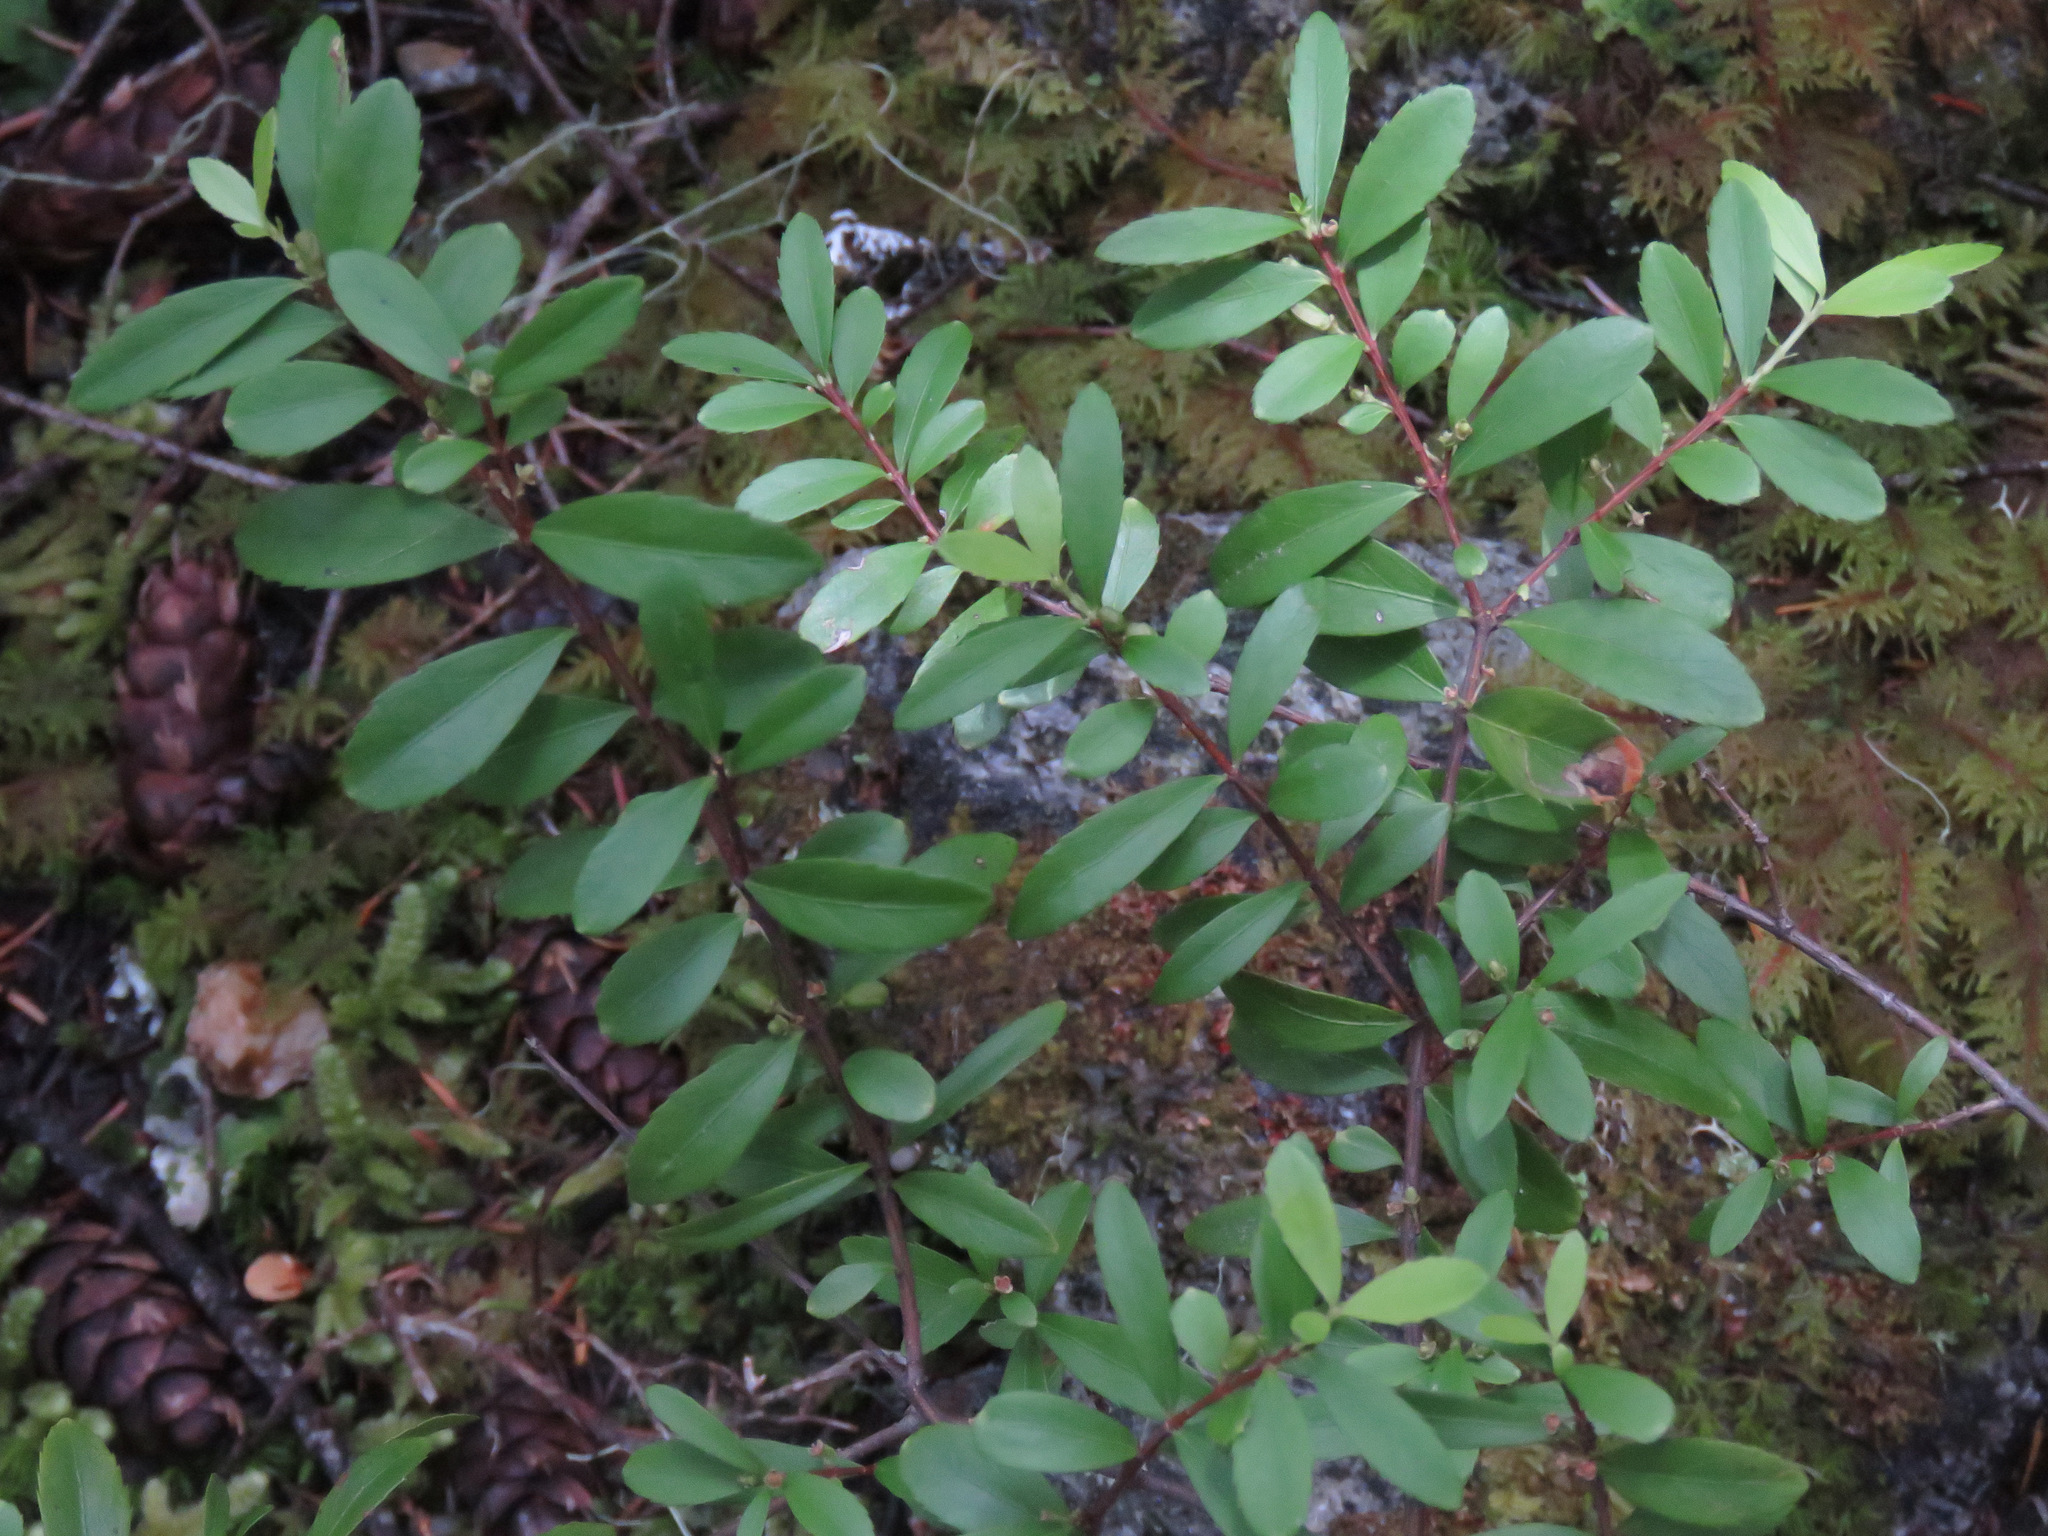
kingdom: Plantae
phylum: Tracheophyta
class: Magnoliopsida
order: Celastrales
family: Celastraceae
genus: Paxistima
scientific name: Paxistima myrsinites
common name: Mountain-lover
